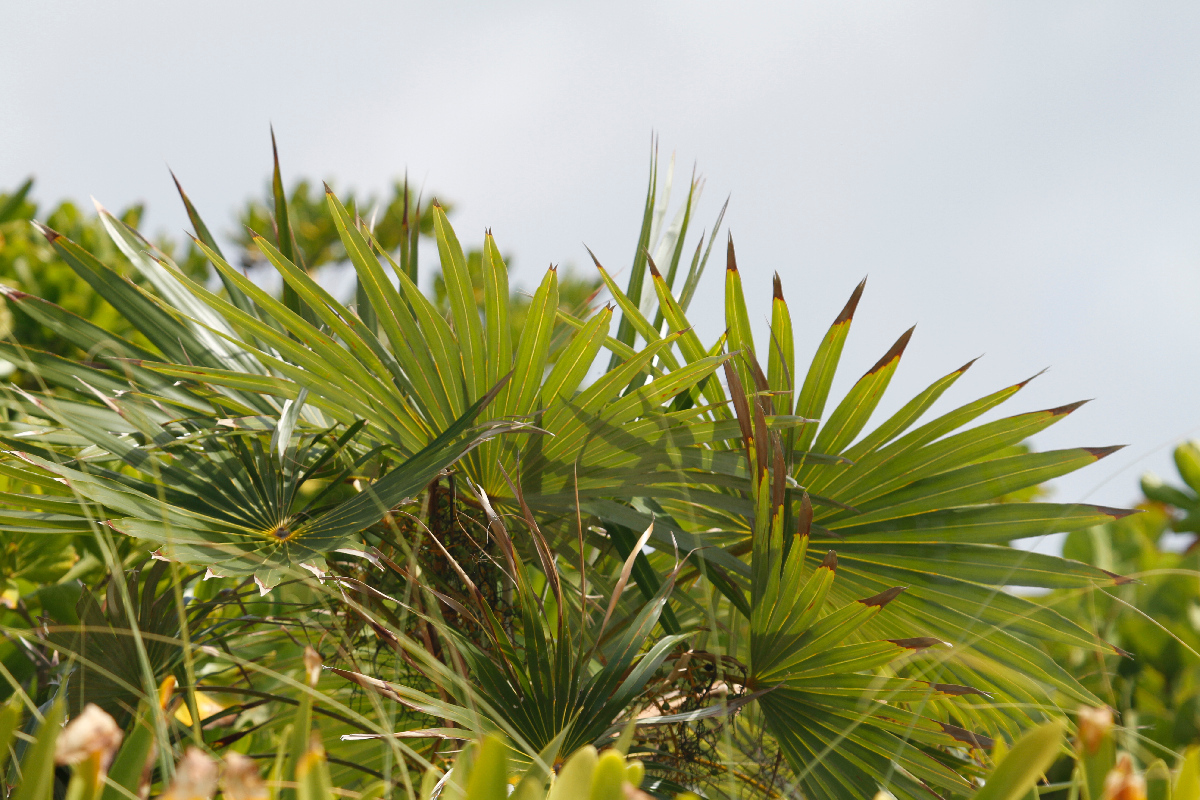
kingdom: Plantae
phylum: Tracheophyta
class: Liliopsida
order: Arecales
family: Arecaceae
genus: Thrinax
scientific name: Thrinax radiata
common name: Florida thatch
